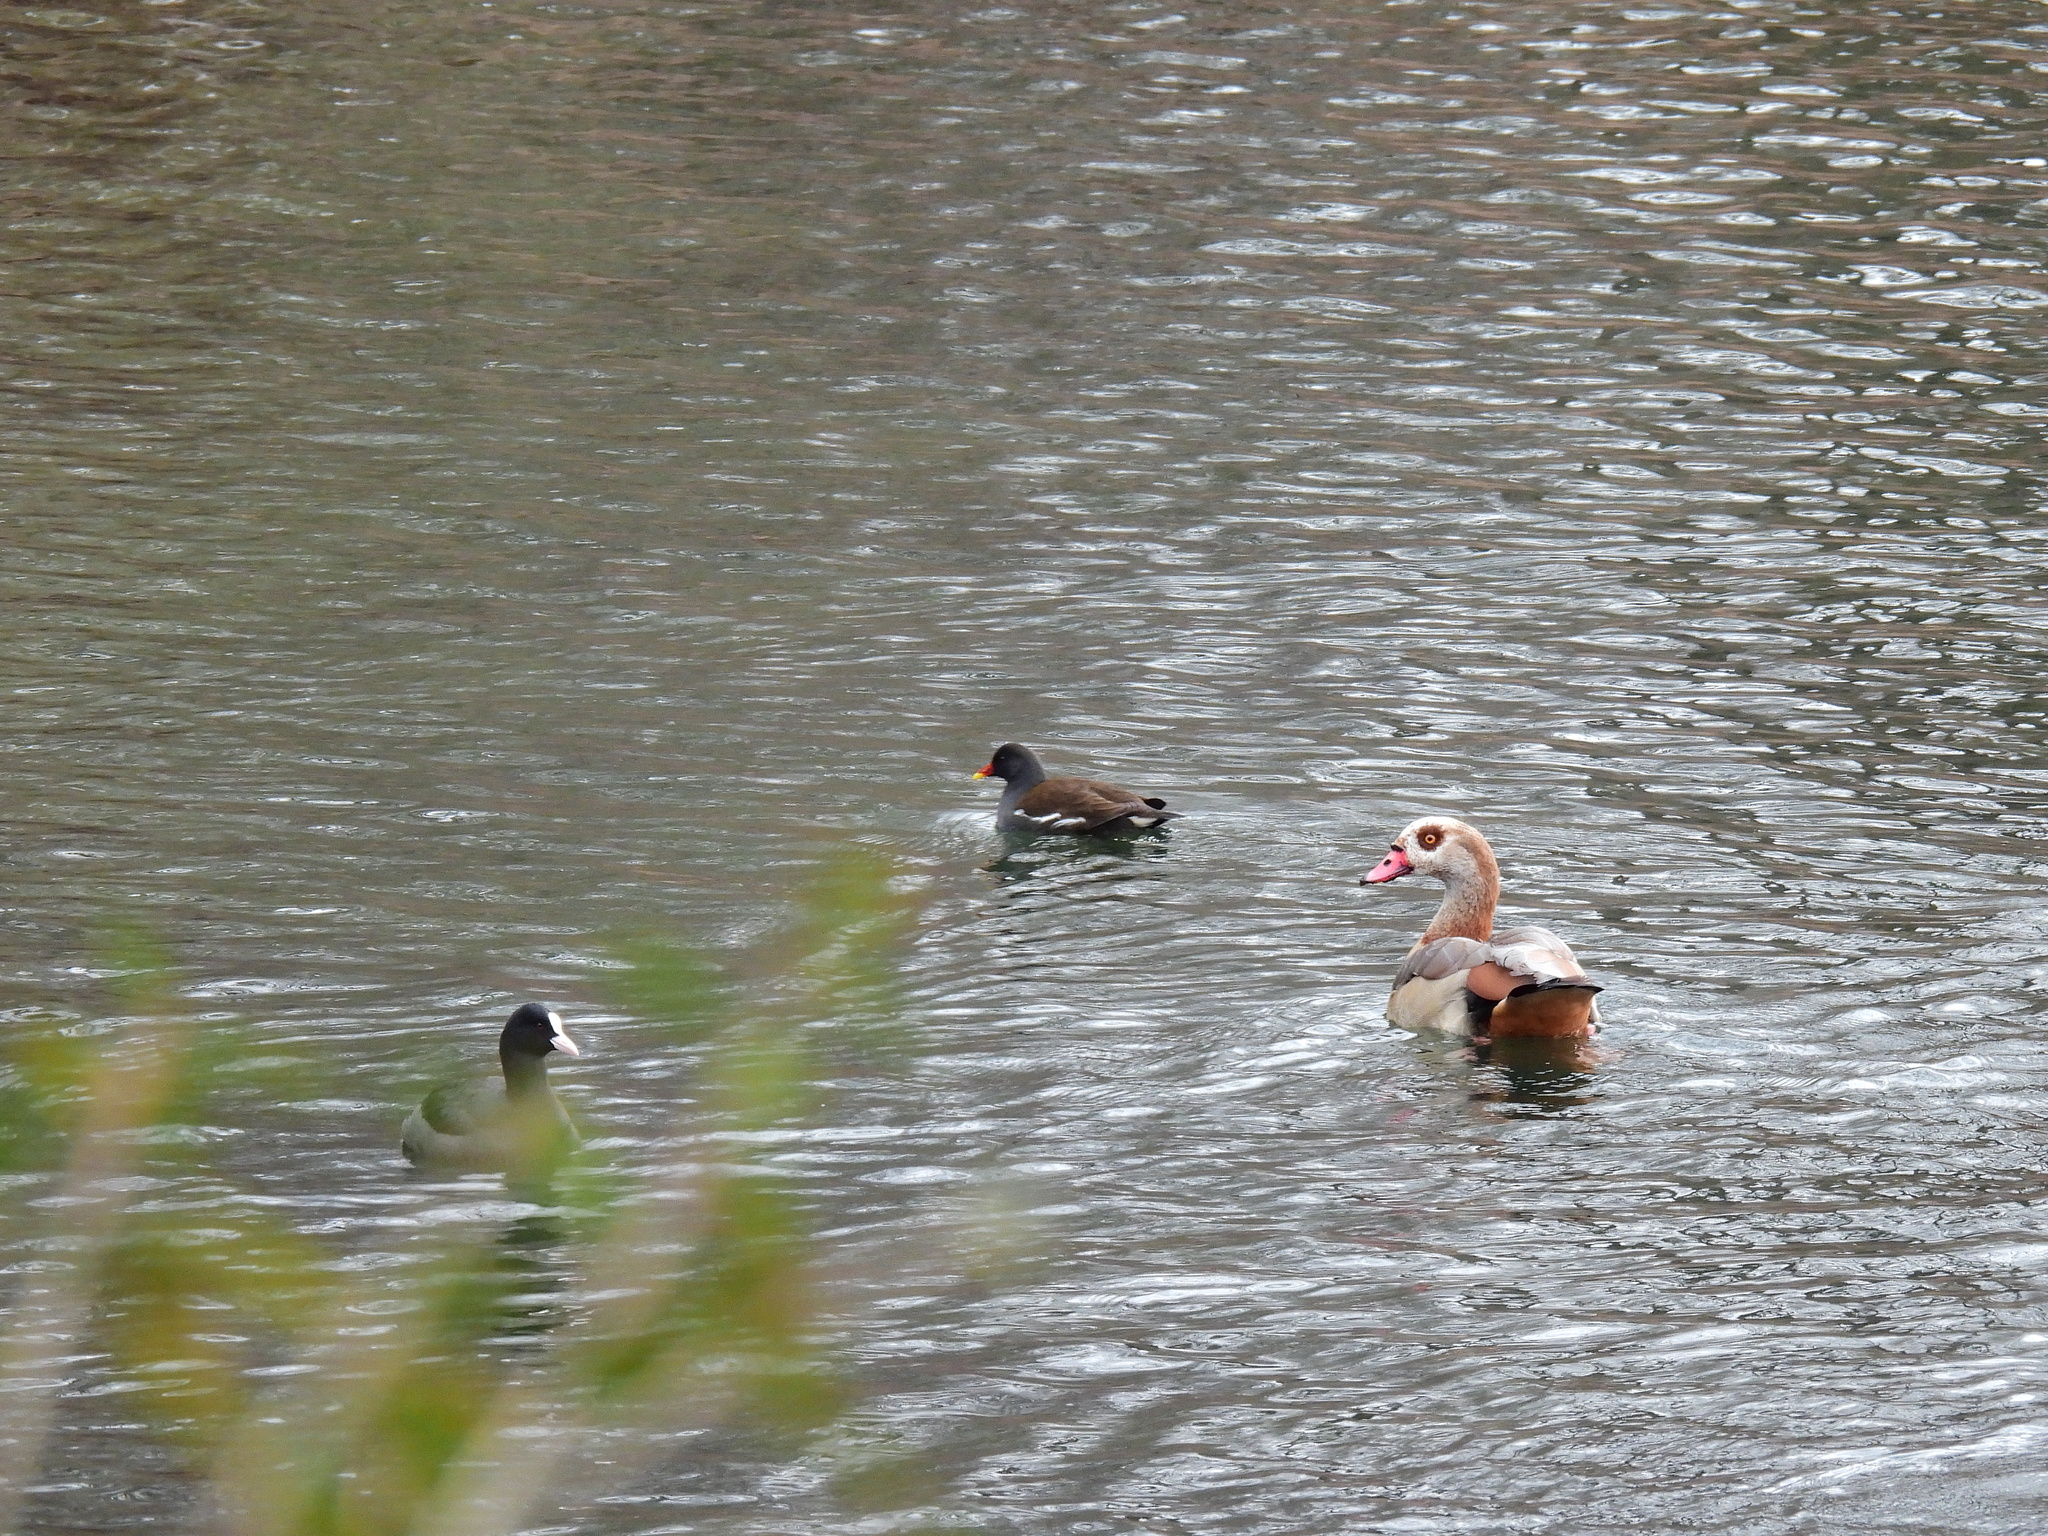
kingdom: Animalia
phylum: Chordata
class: Aves
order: Gruiformes
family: Rallidae
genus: Gallinula
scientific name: Gallinula chloropus
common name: Common moorhen
